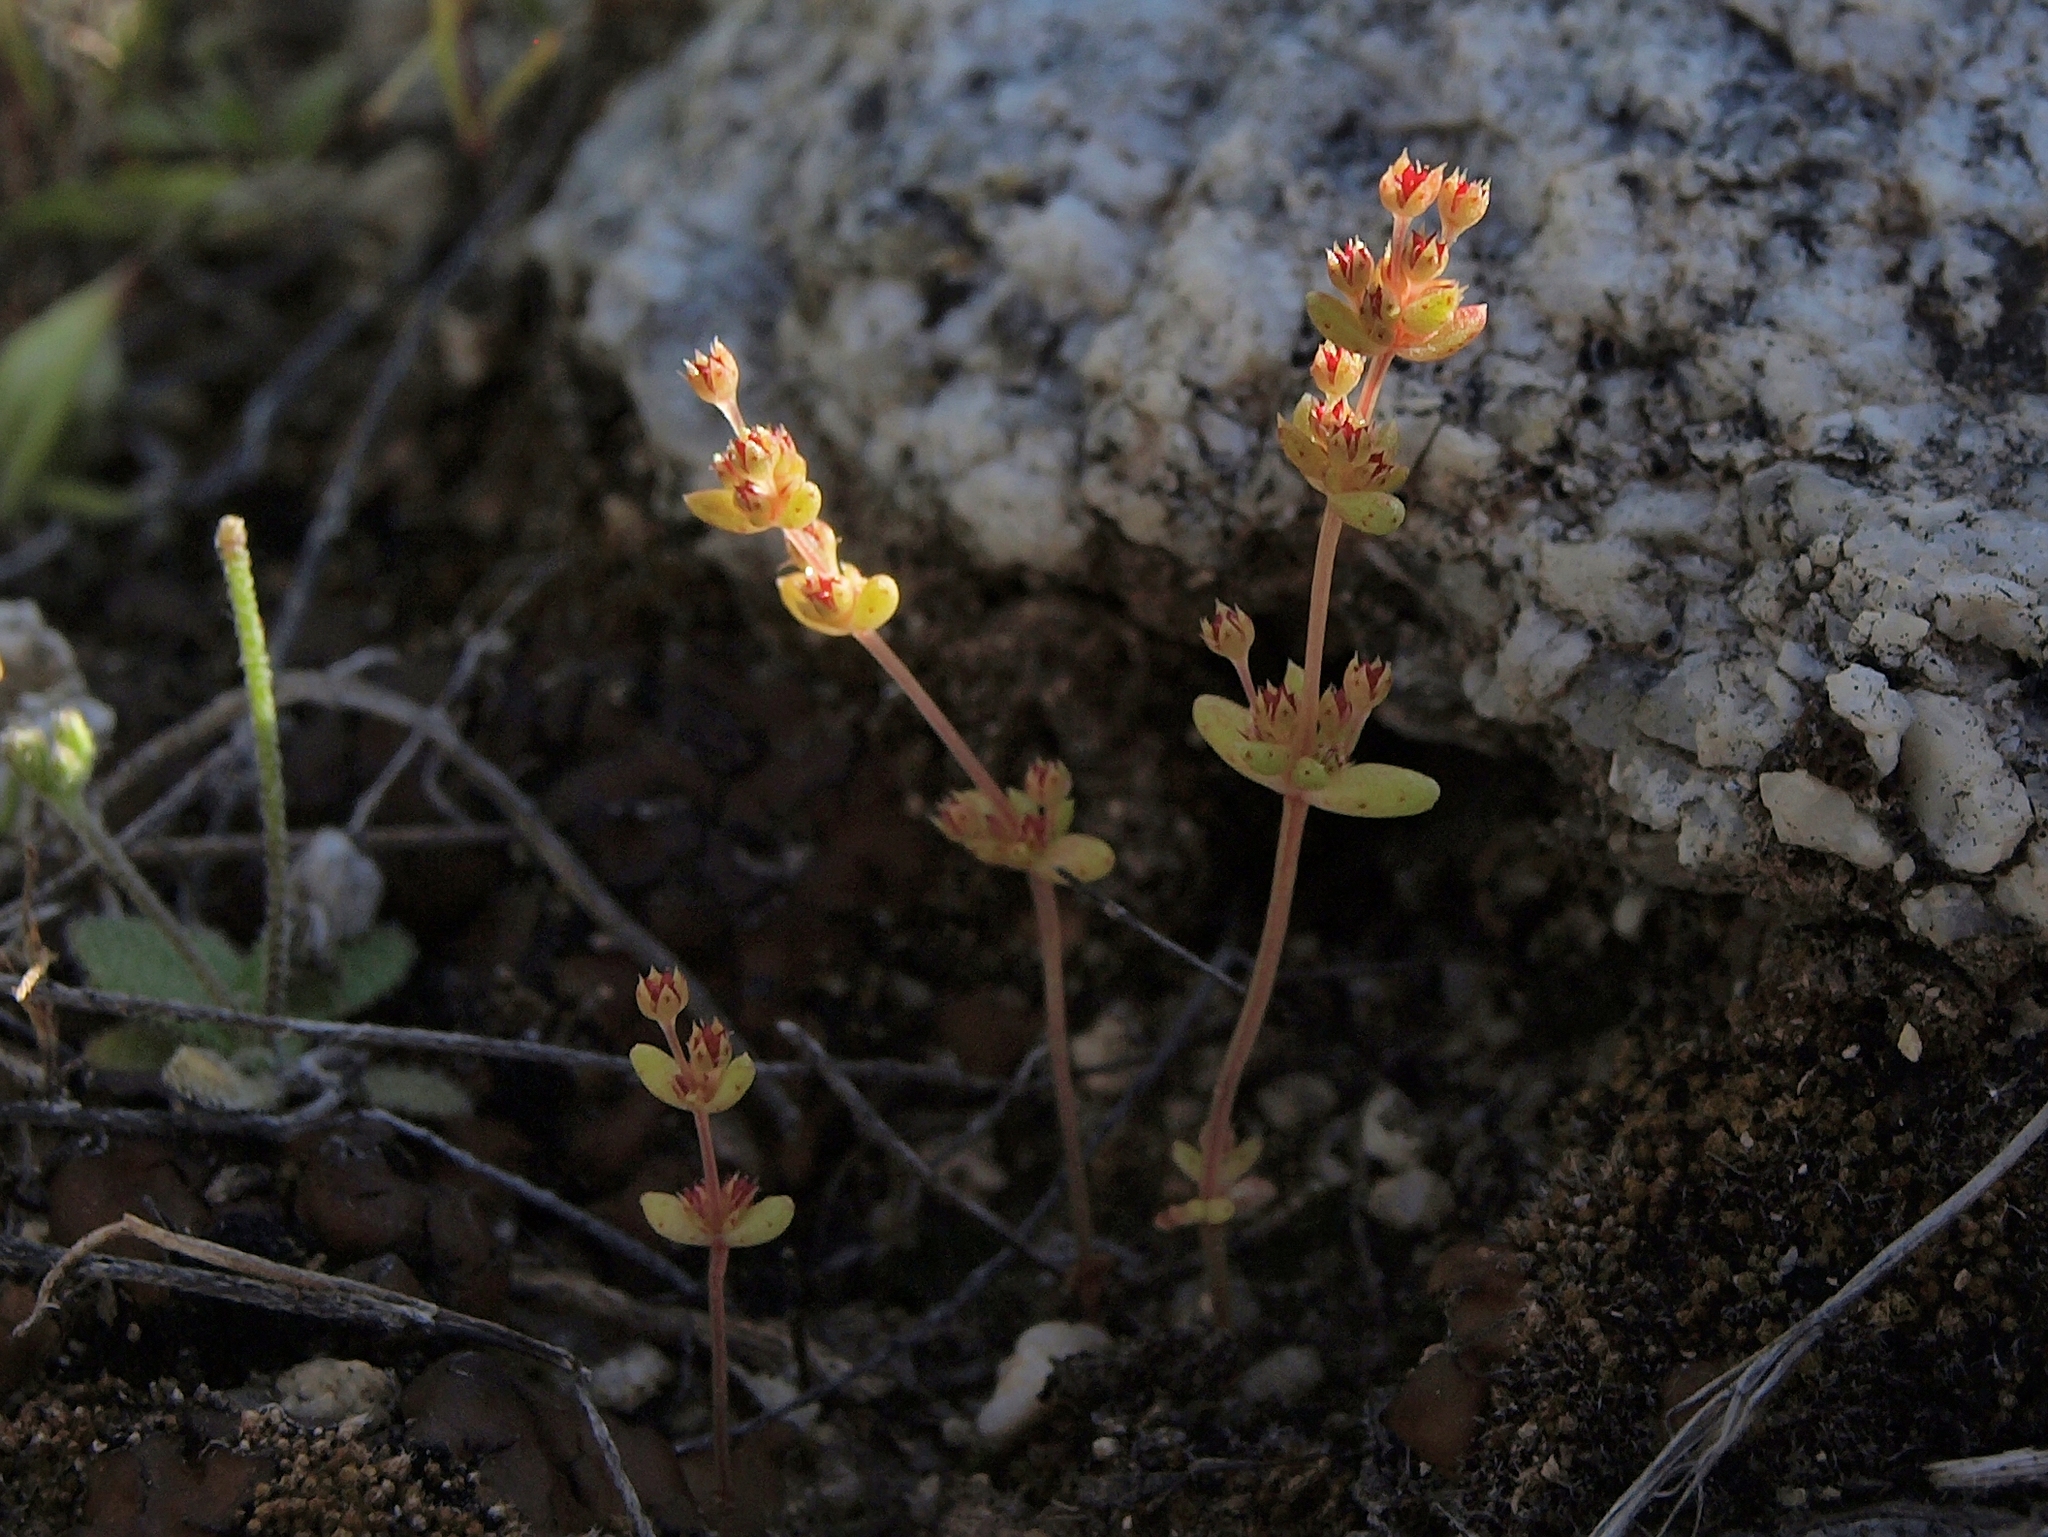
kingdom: Plantae
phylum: Tracheophyta
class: Magnoliopsida
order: Saxifragales
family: Crassulaceae
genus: Crassula
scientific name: Crassula connata
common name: Erect pygmyweed
